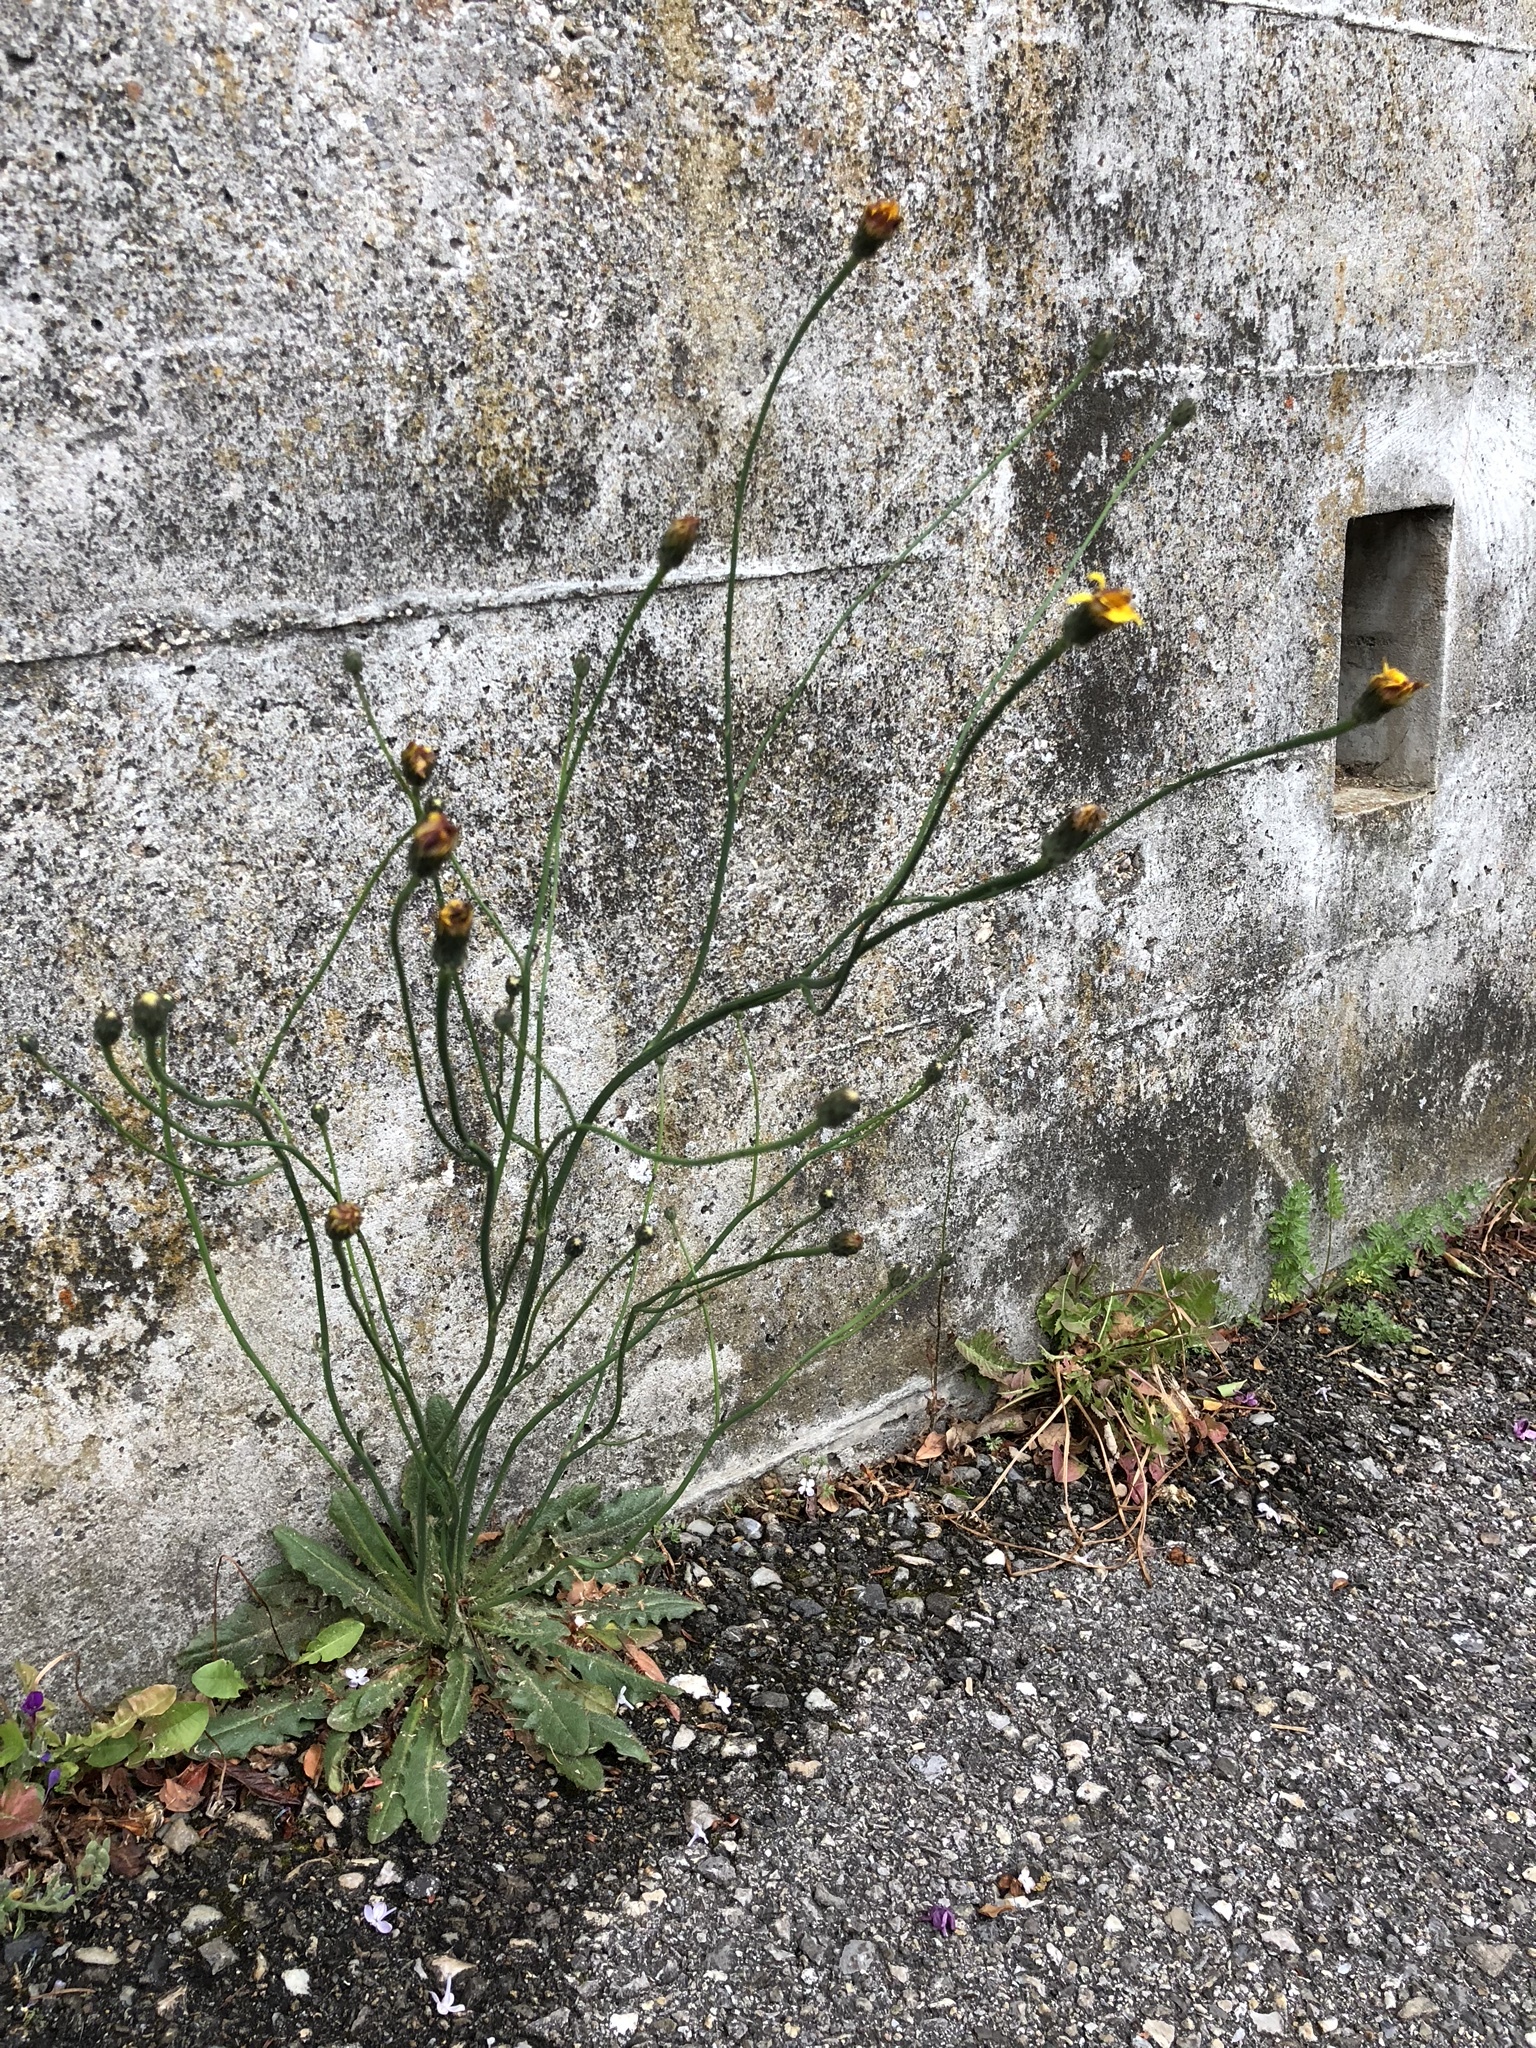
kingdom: Plantae
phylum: Tracheophyta
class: Magnoliopsida
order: Asterales
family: Asteraceae
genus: Hypochaeris
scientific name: Hypochaeris radicata
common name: Flatweed
